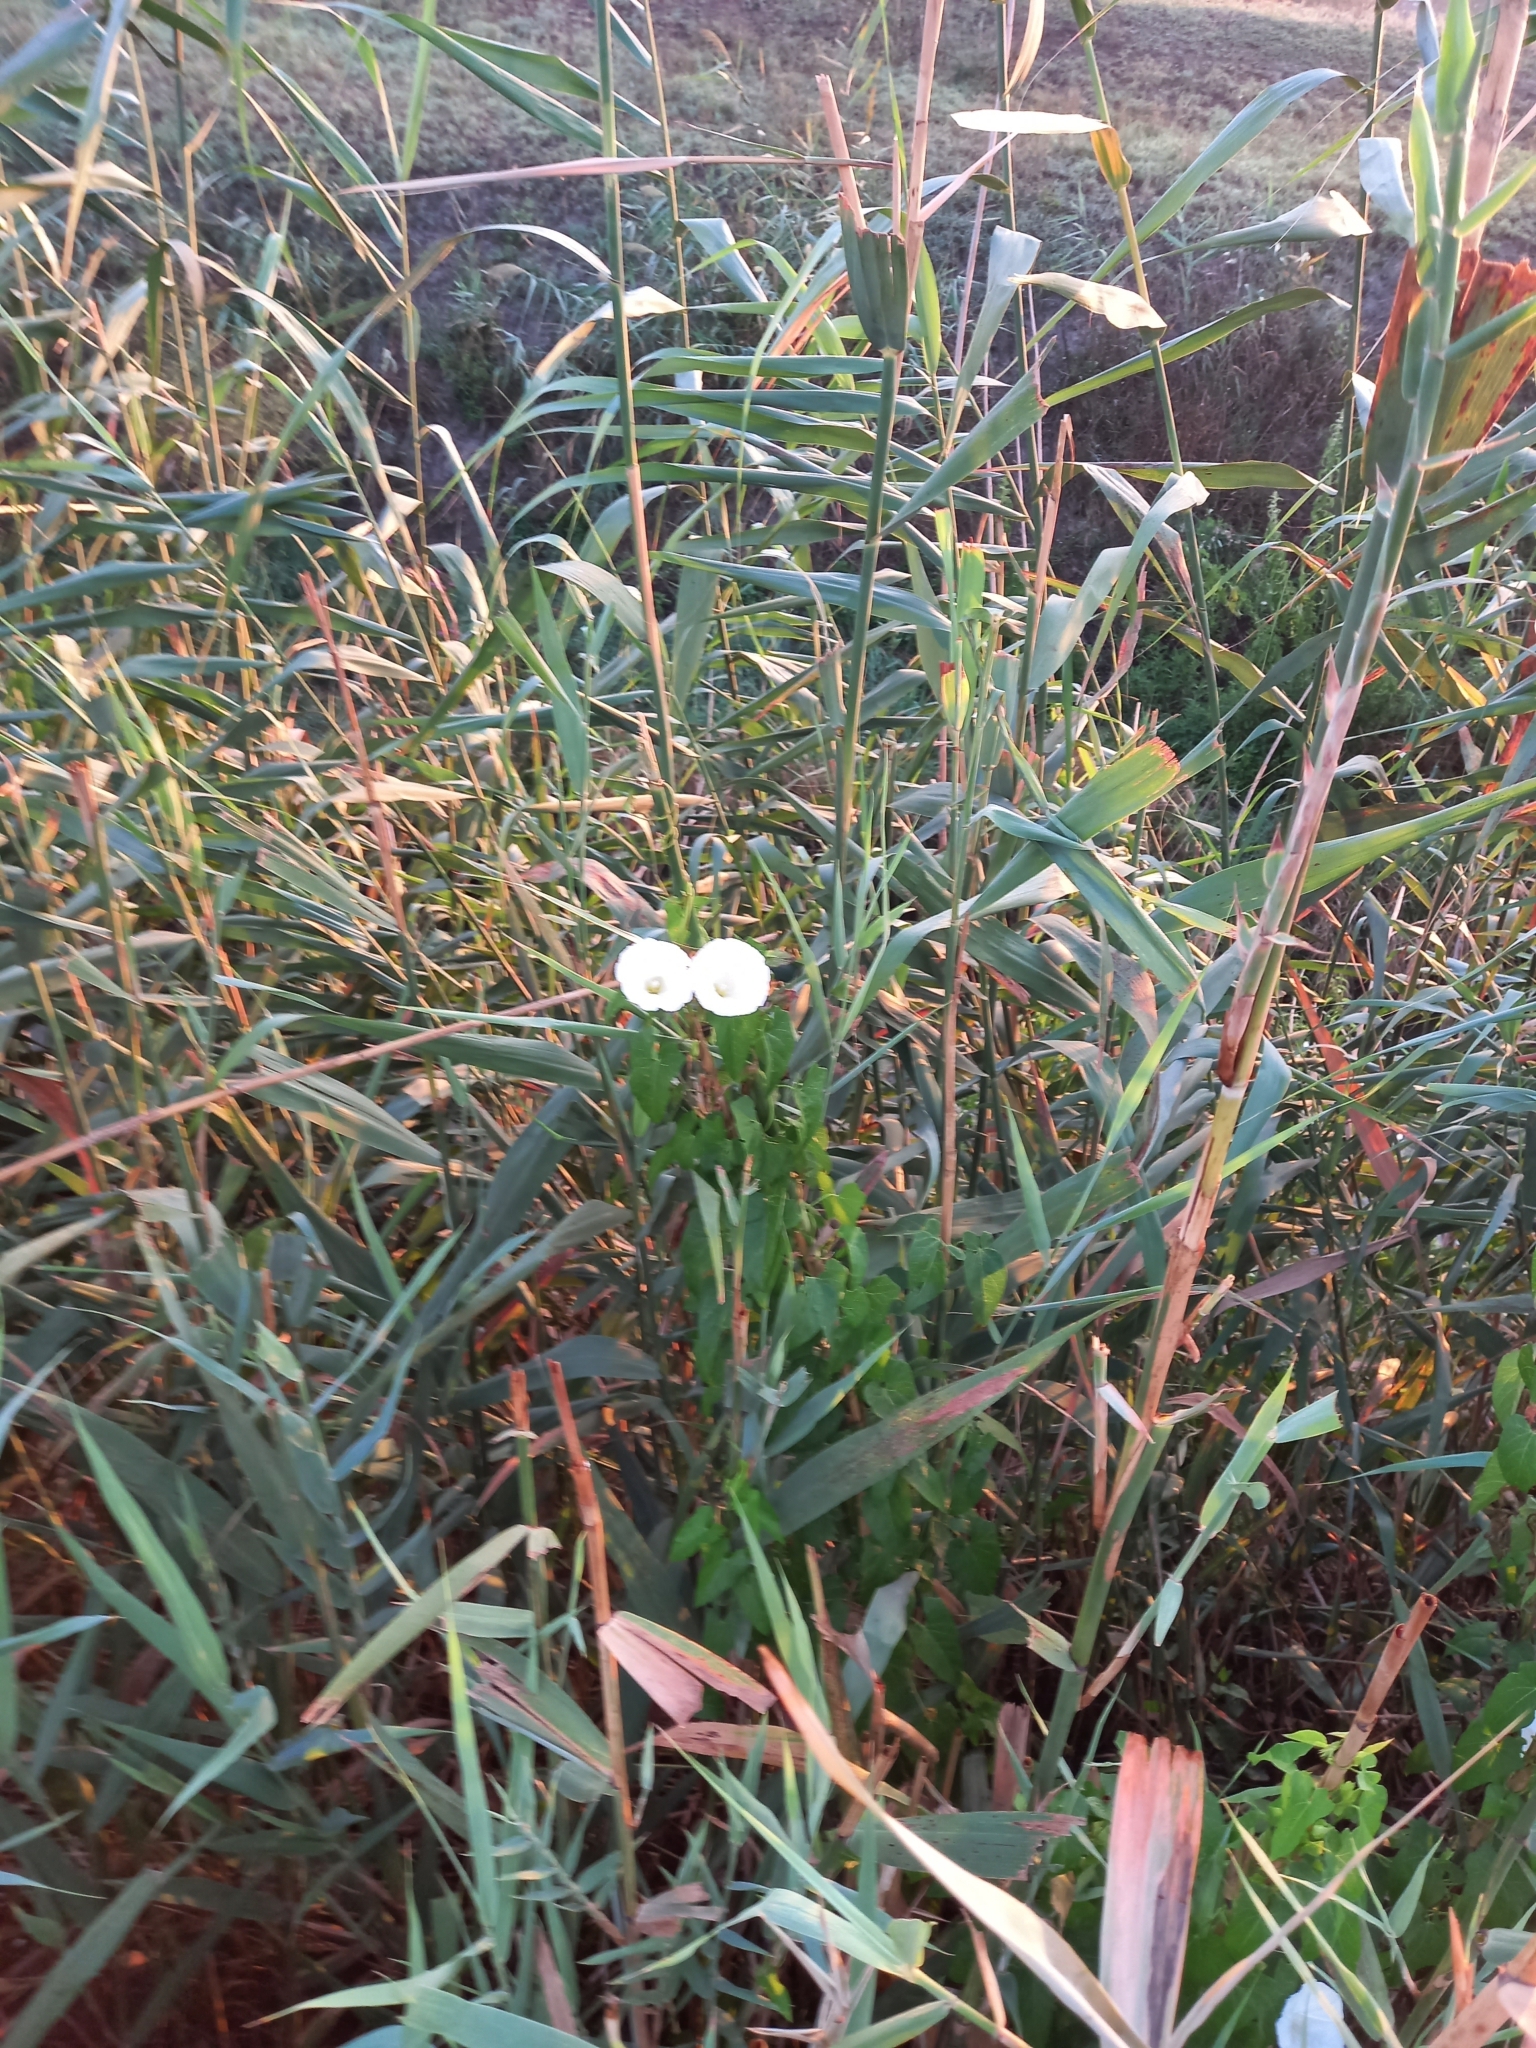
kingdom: Plantae
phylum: Tracheophyta
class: Magnoliopsida
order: Solanales
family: Convolvulaceae
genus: Calystegia
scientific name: Calystegia
